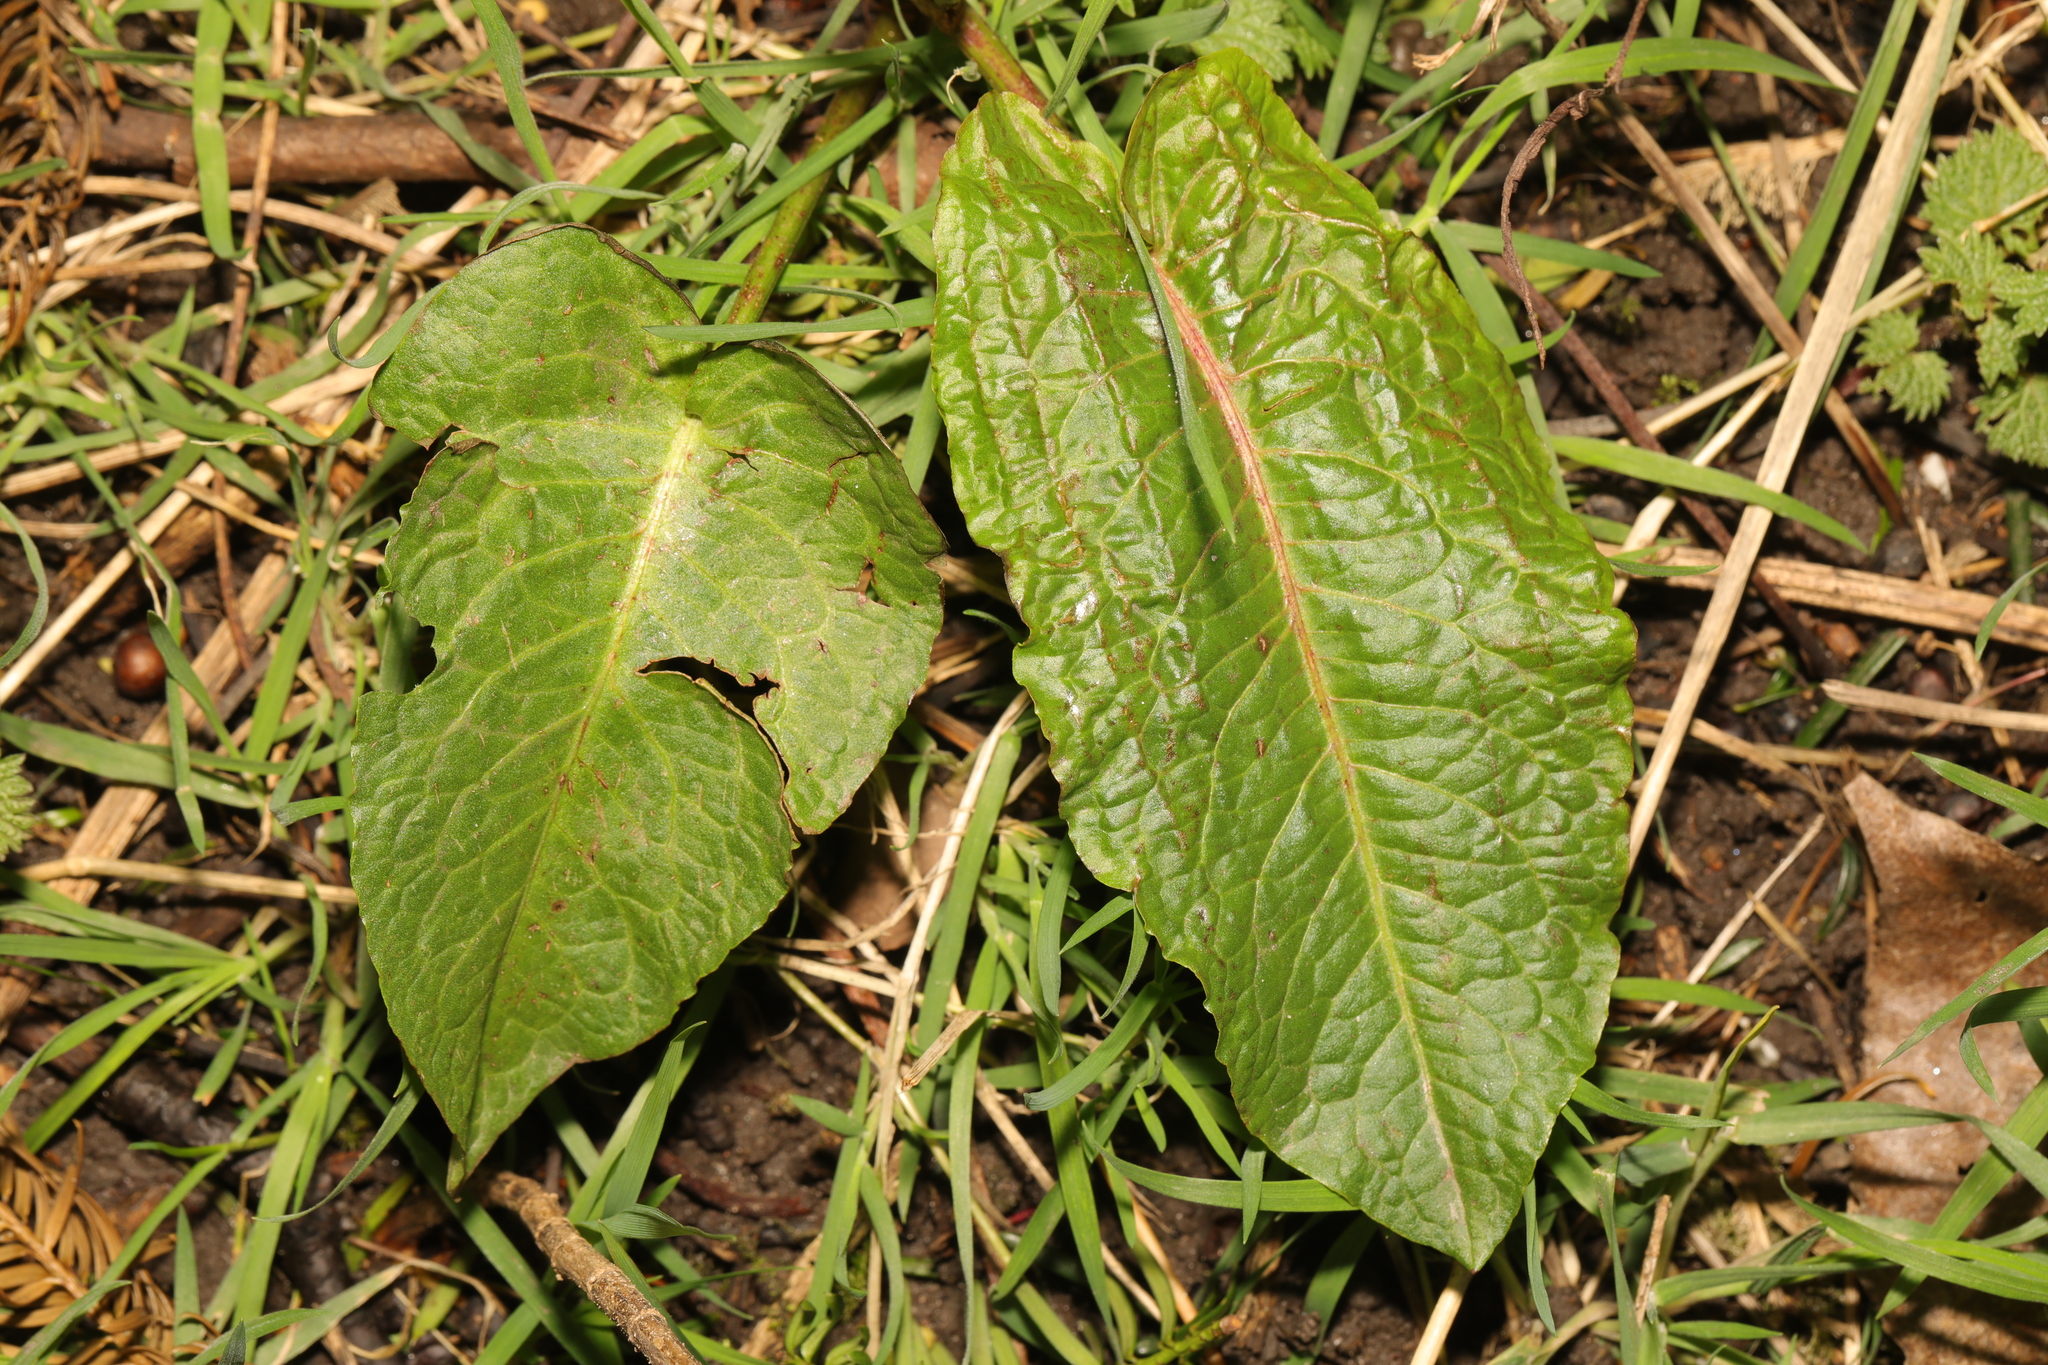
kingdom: Plantae
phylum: Tracheophyta
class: Magnoliopsida
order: Caryophyllales
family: Polygonaceae
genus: Rumex
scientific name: Rumex obtusifolius
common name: Bitter dock
